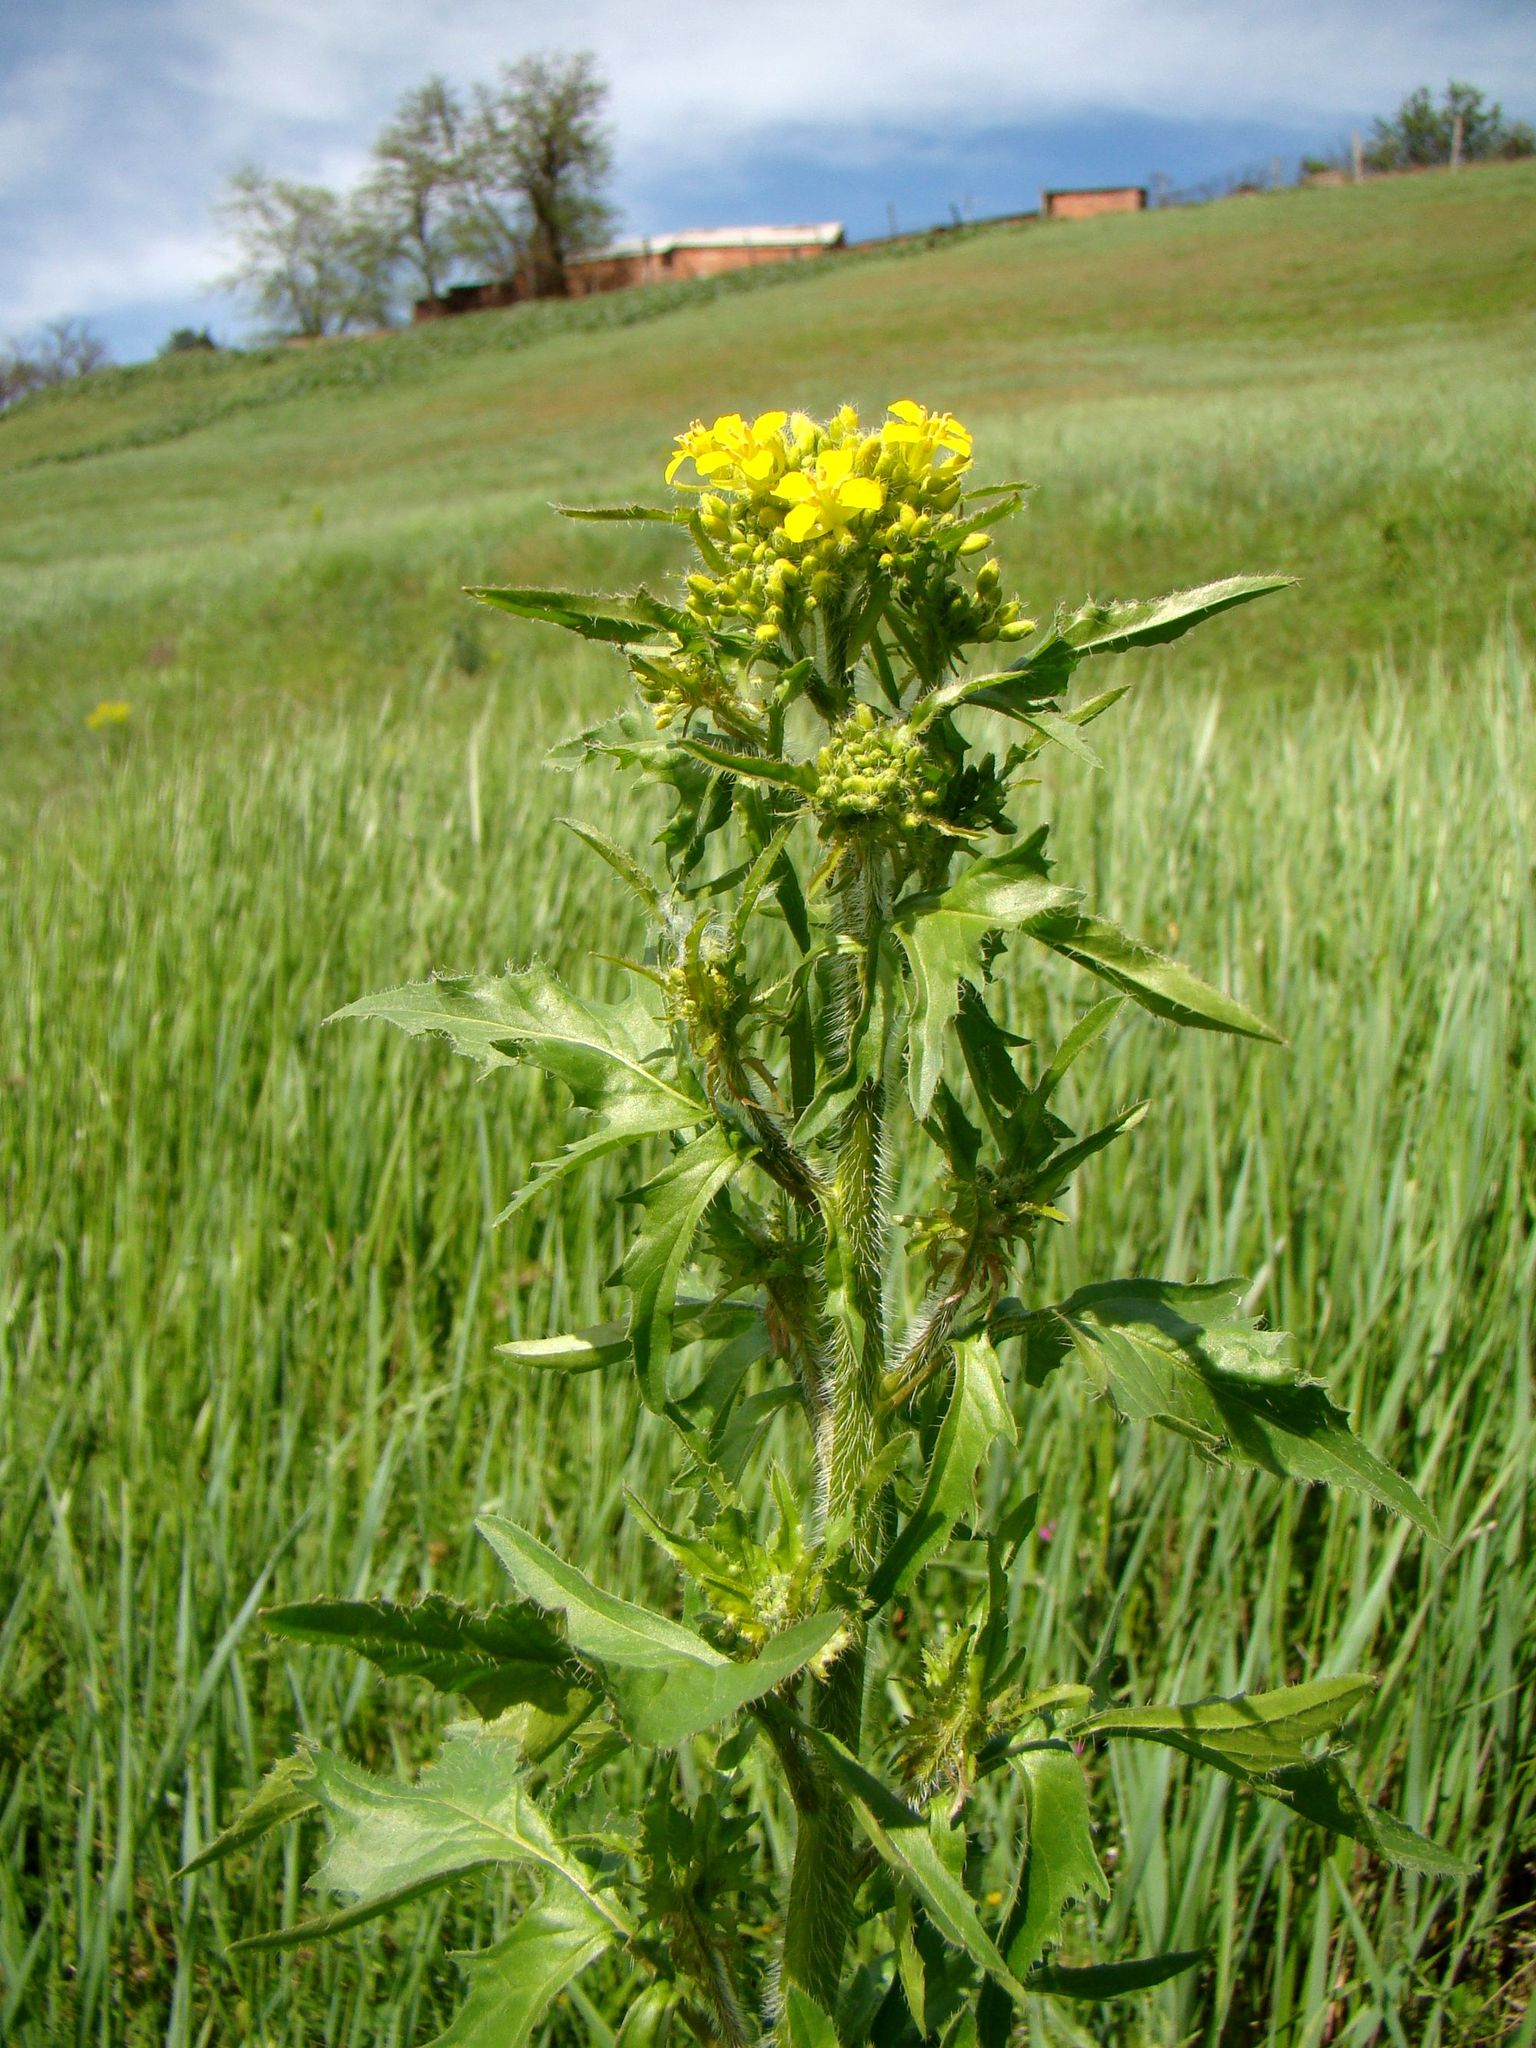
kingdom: Plantae
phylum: Tracheophyta
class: Magnoliopsida
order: Brassicales
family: Brassicaceae
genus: Sisymbrium
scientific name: Sisymbrium loeselii
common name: False london-rocket
